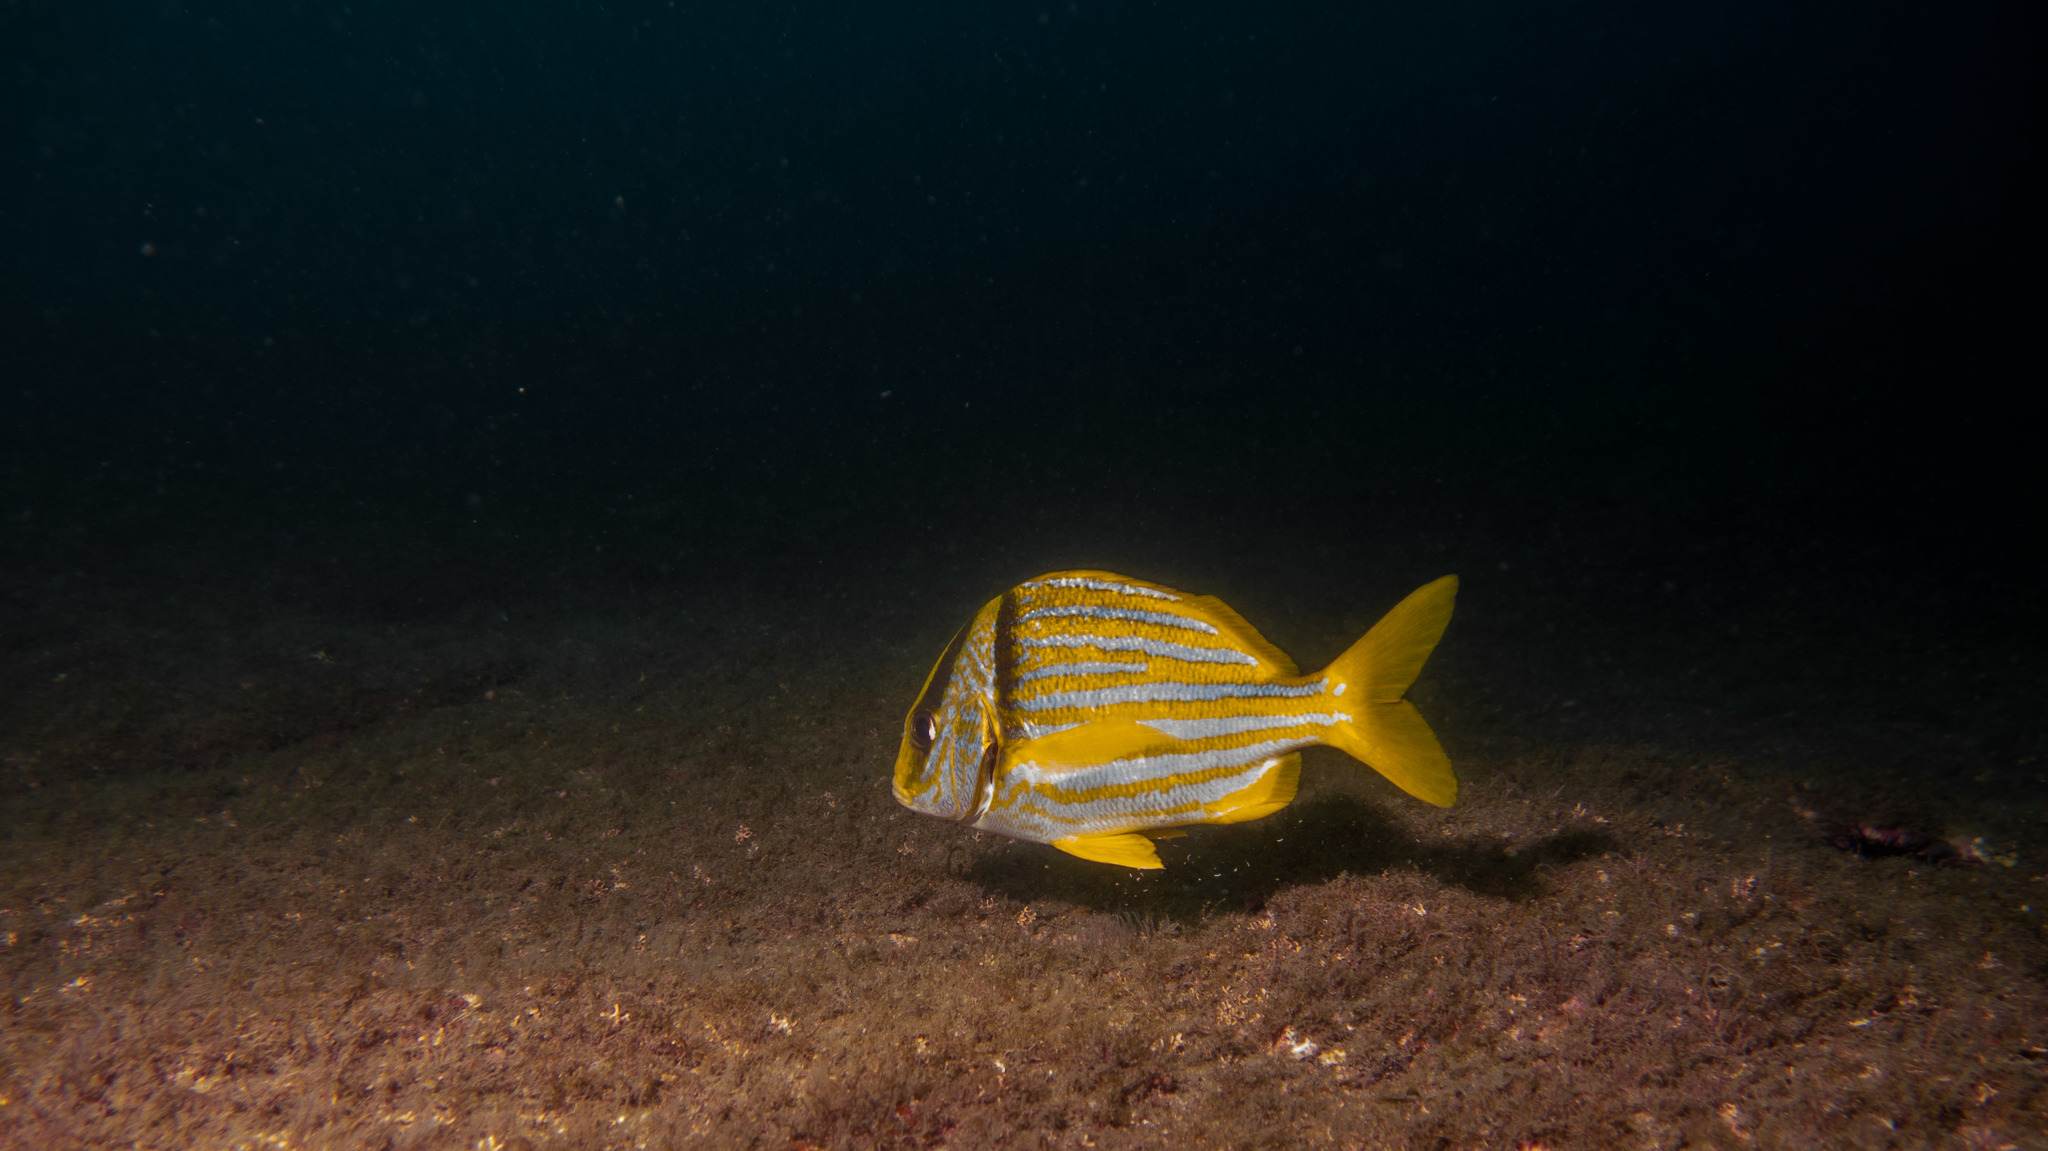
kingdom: Animalia
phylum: Chordata
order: Perciformes
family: Haemulidae
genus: Anisotremus
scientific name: Anisotremus virginicus
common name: Porkfish
